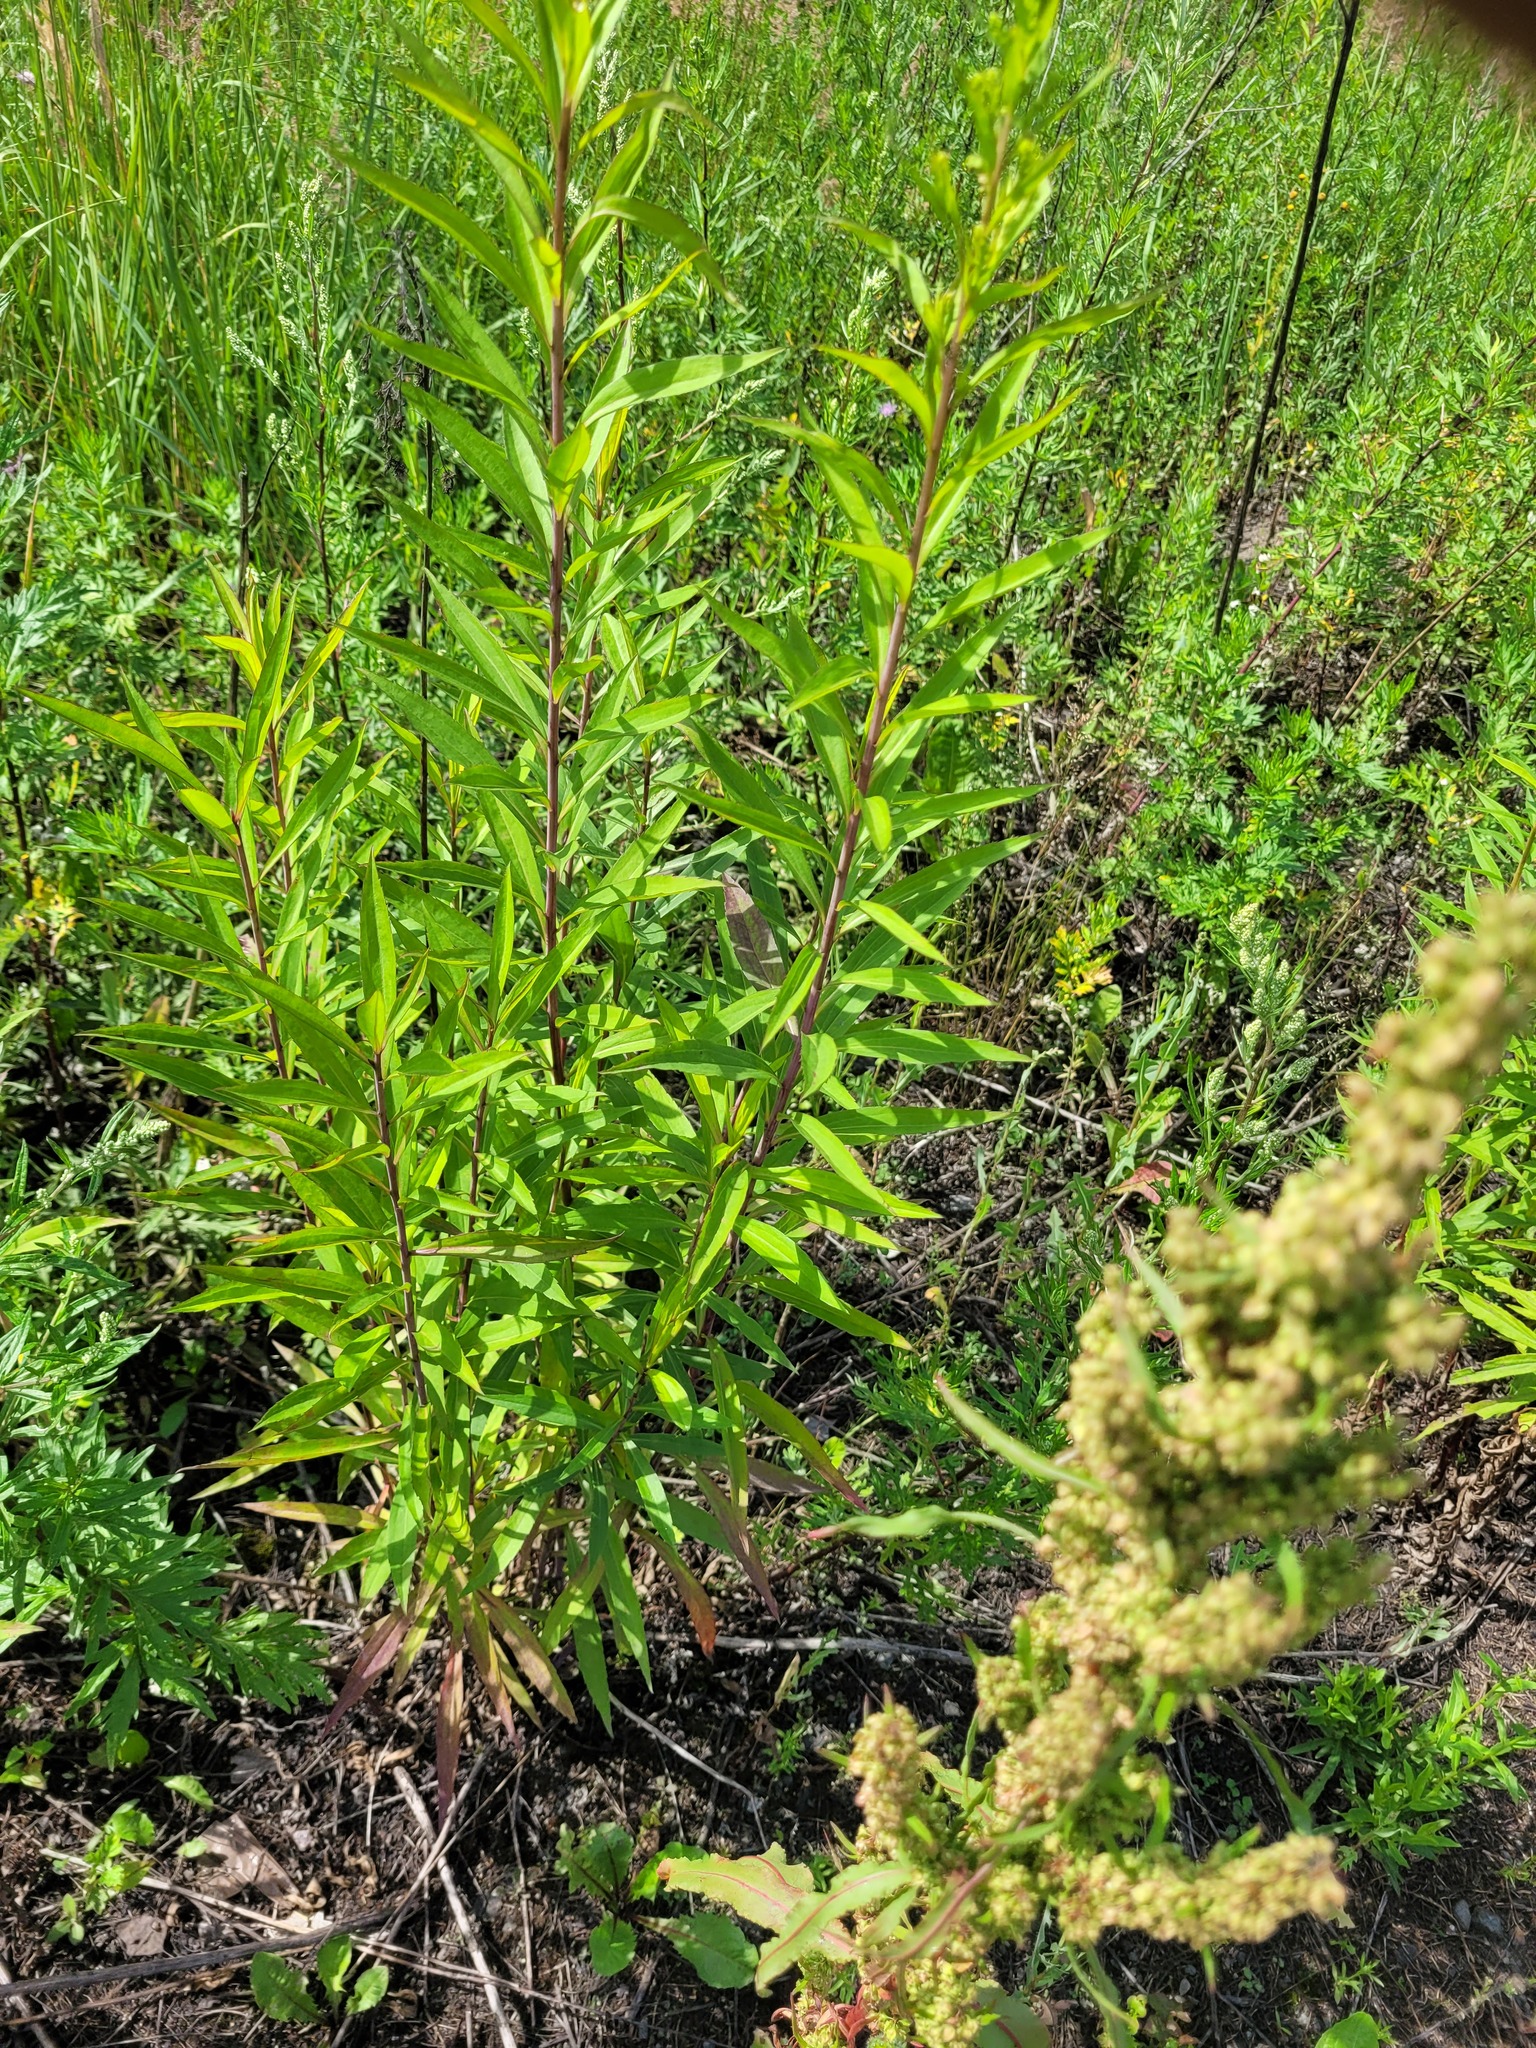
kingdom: Plantae
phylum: Tracheophyta
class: Magnoliopsida
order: Asterales
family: Asteraceae
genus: Solidago
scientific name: Solidago gigantea
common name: Giant goldenrod
